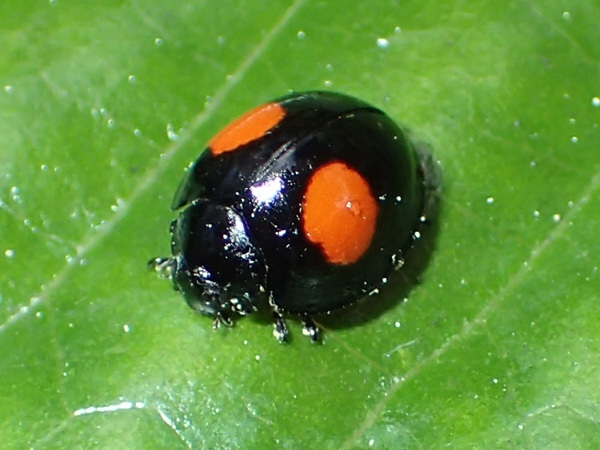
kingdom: Animalia
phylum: Arthropoda
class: Insecta
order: Coleoptera
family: Coccinellidae
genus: Chilocorus
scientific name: Chilocorus cacti
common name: Cactus lady beetle
